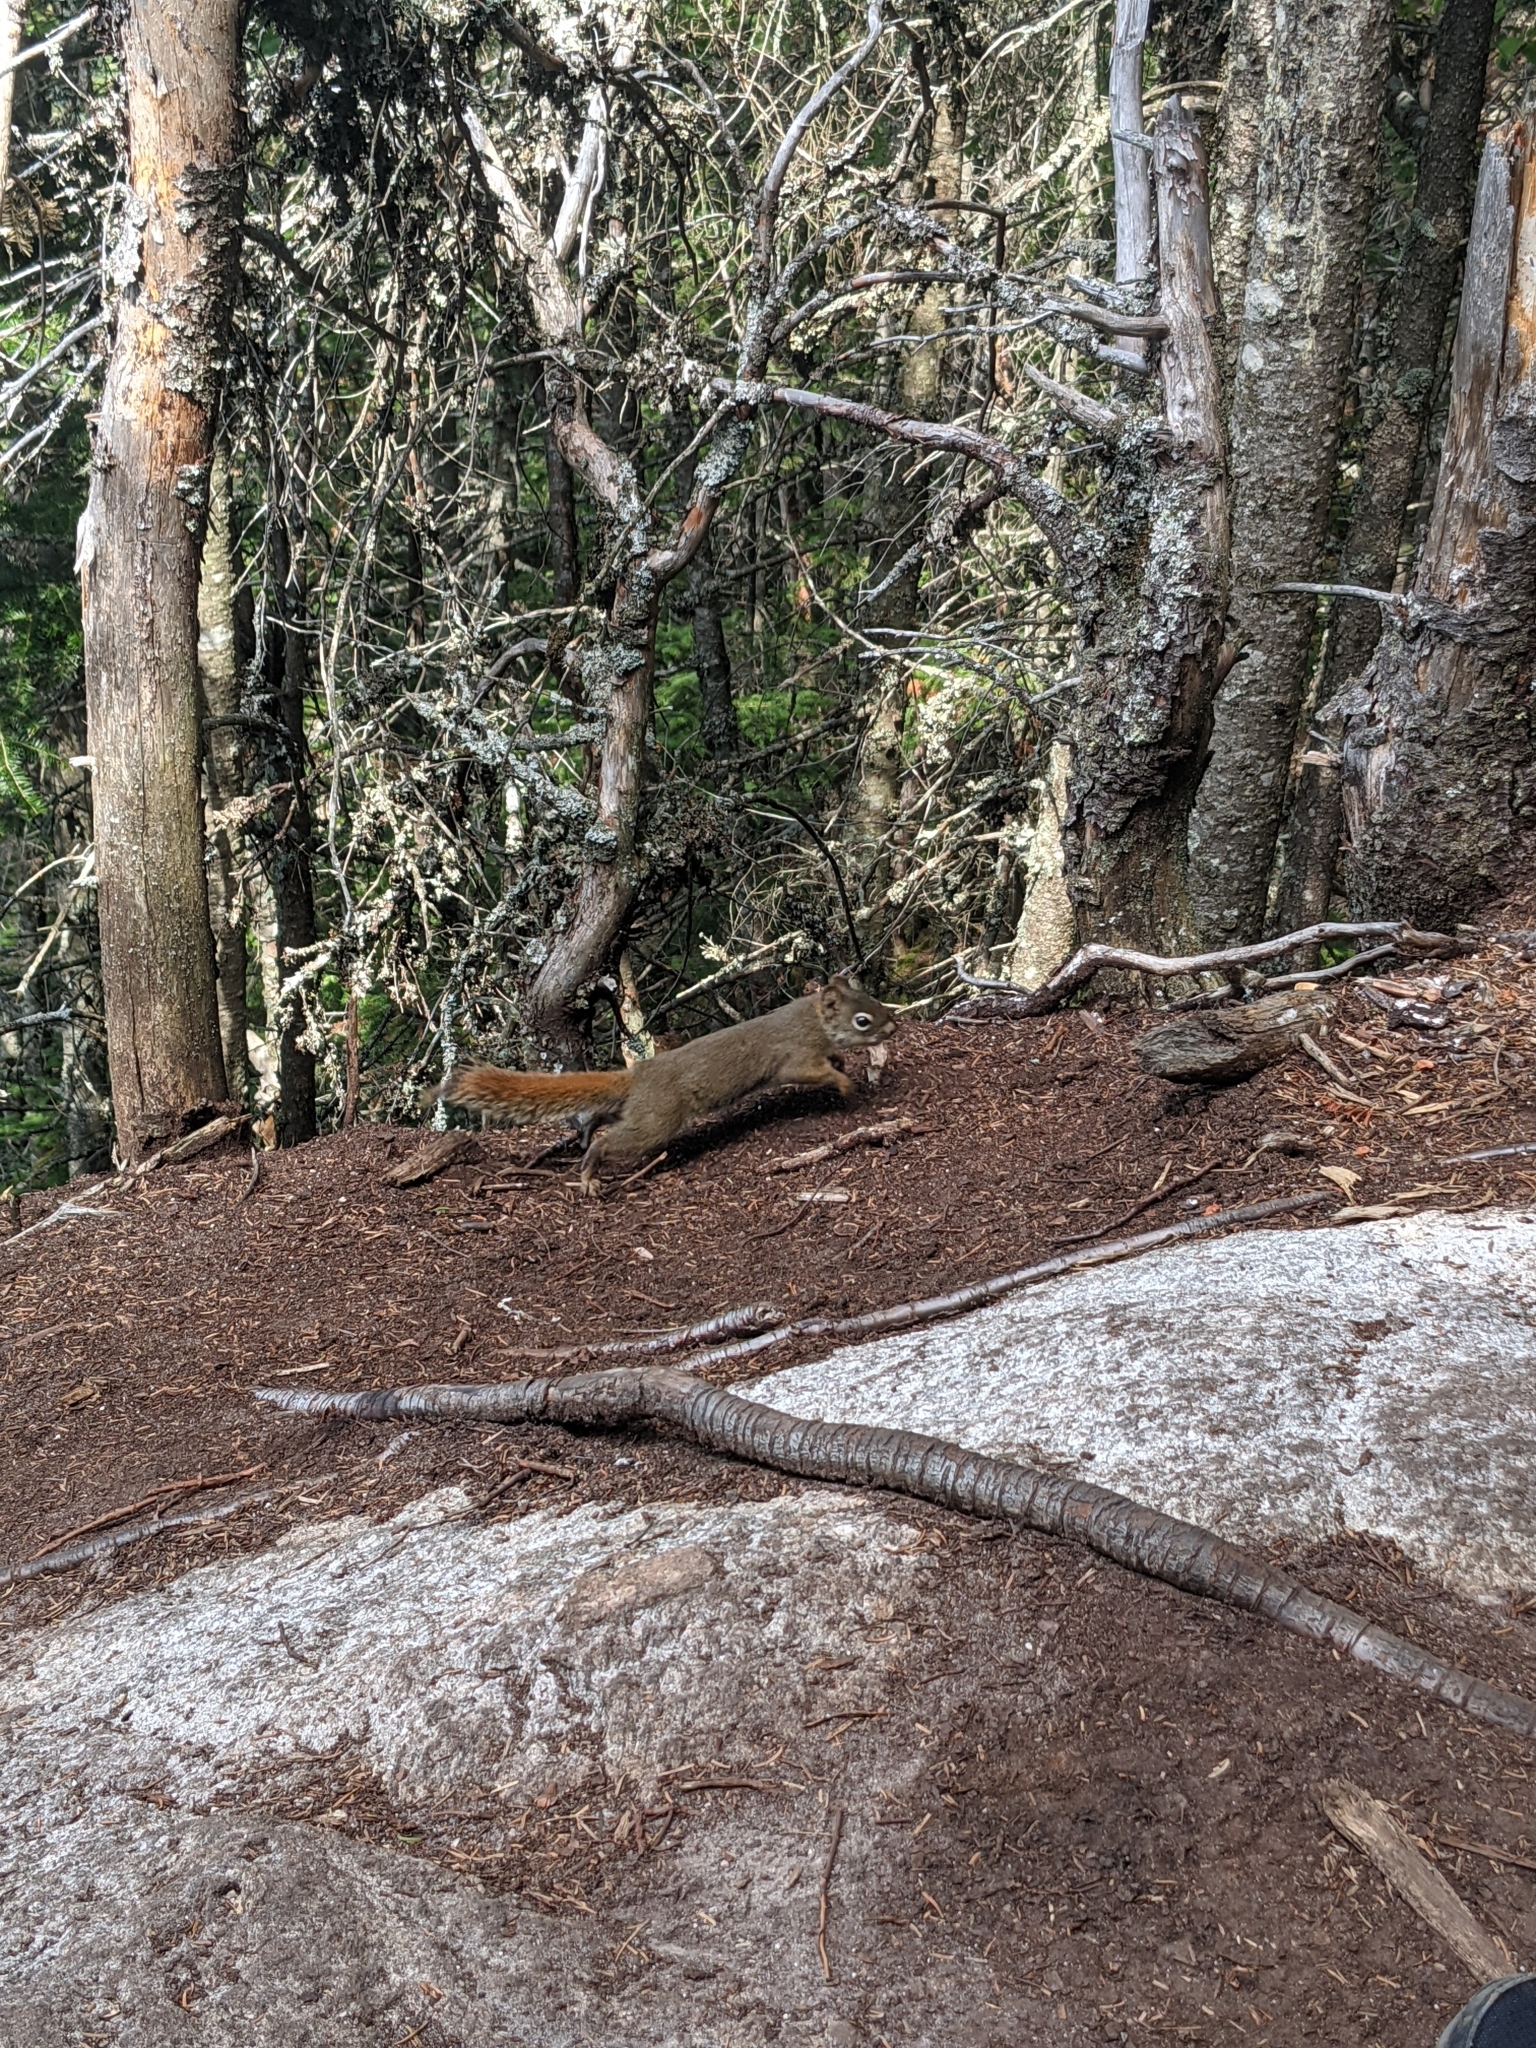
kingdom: Animalia
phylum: Chordata
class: Mammalia
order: Rodentia
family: Sciuridae
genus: Tamiasciurus
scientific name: Tamiasciurus hudsonicus
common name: Red squirrel
